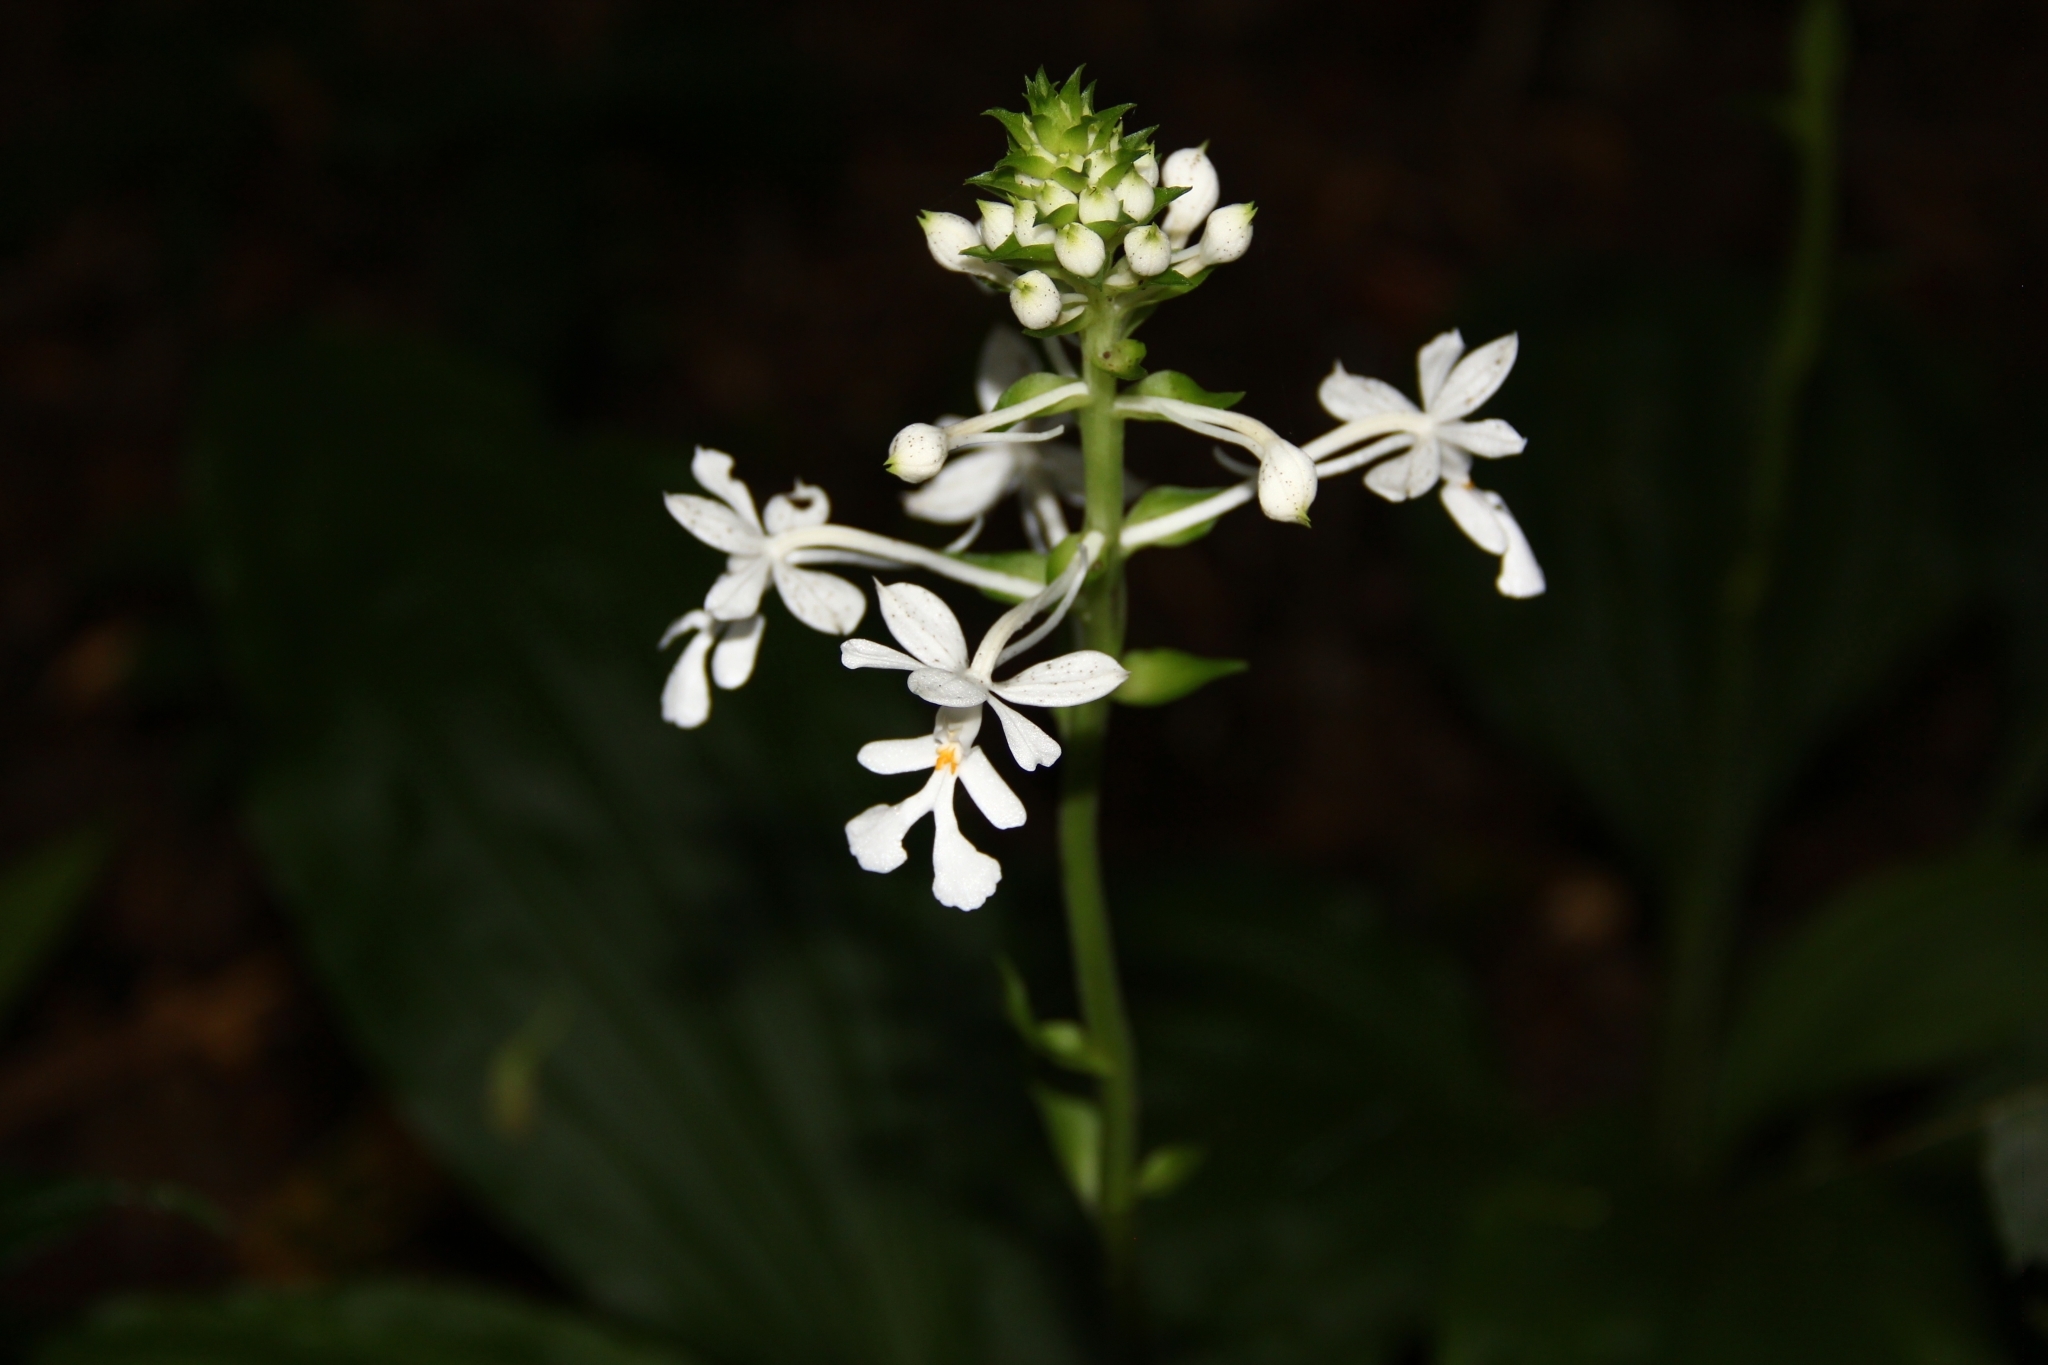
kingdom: Plantae
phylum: Tracheophyta
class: Liliopsida
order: Asparagales
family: Orchidaceae
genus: Calanthe
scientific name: Calanthe triplicata
